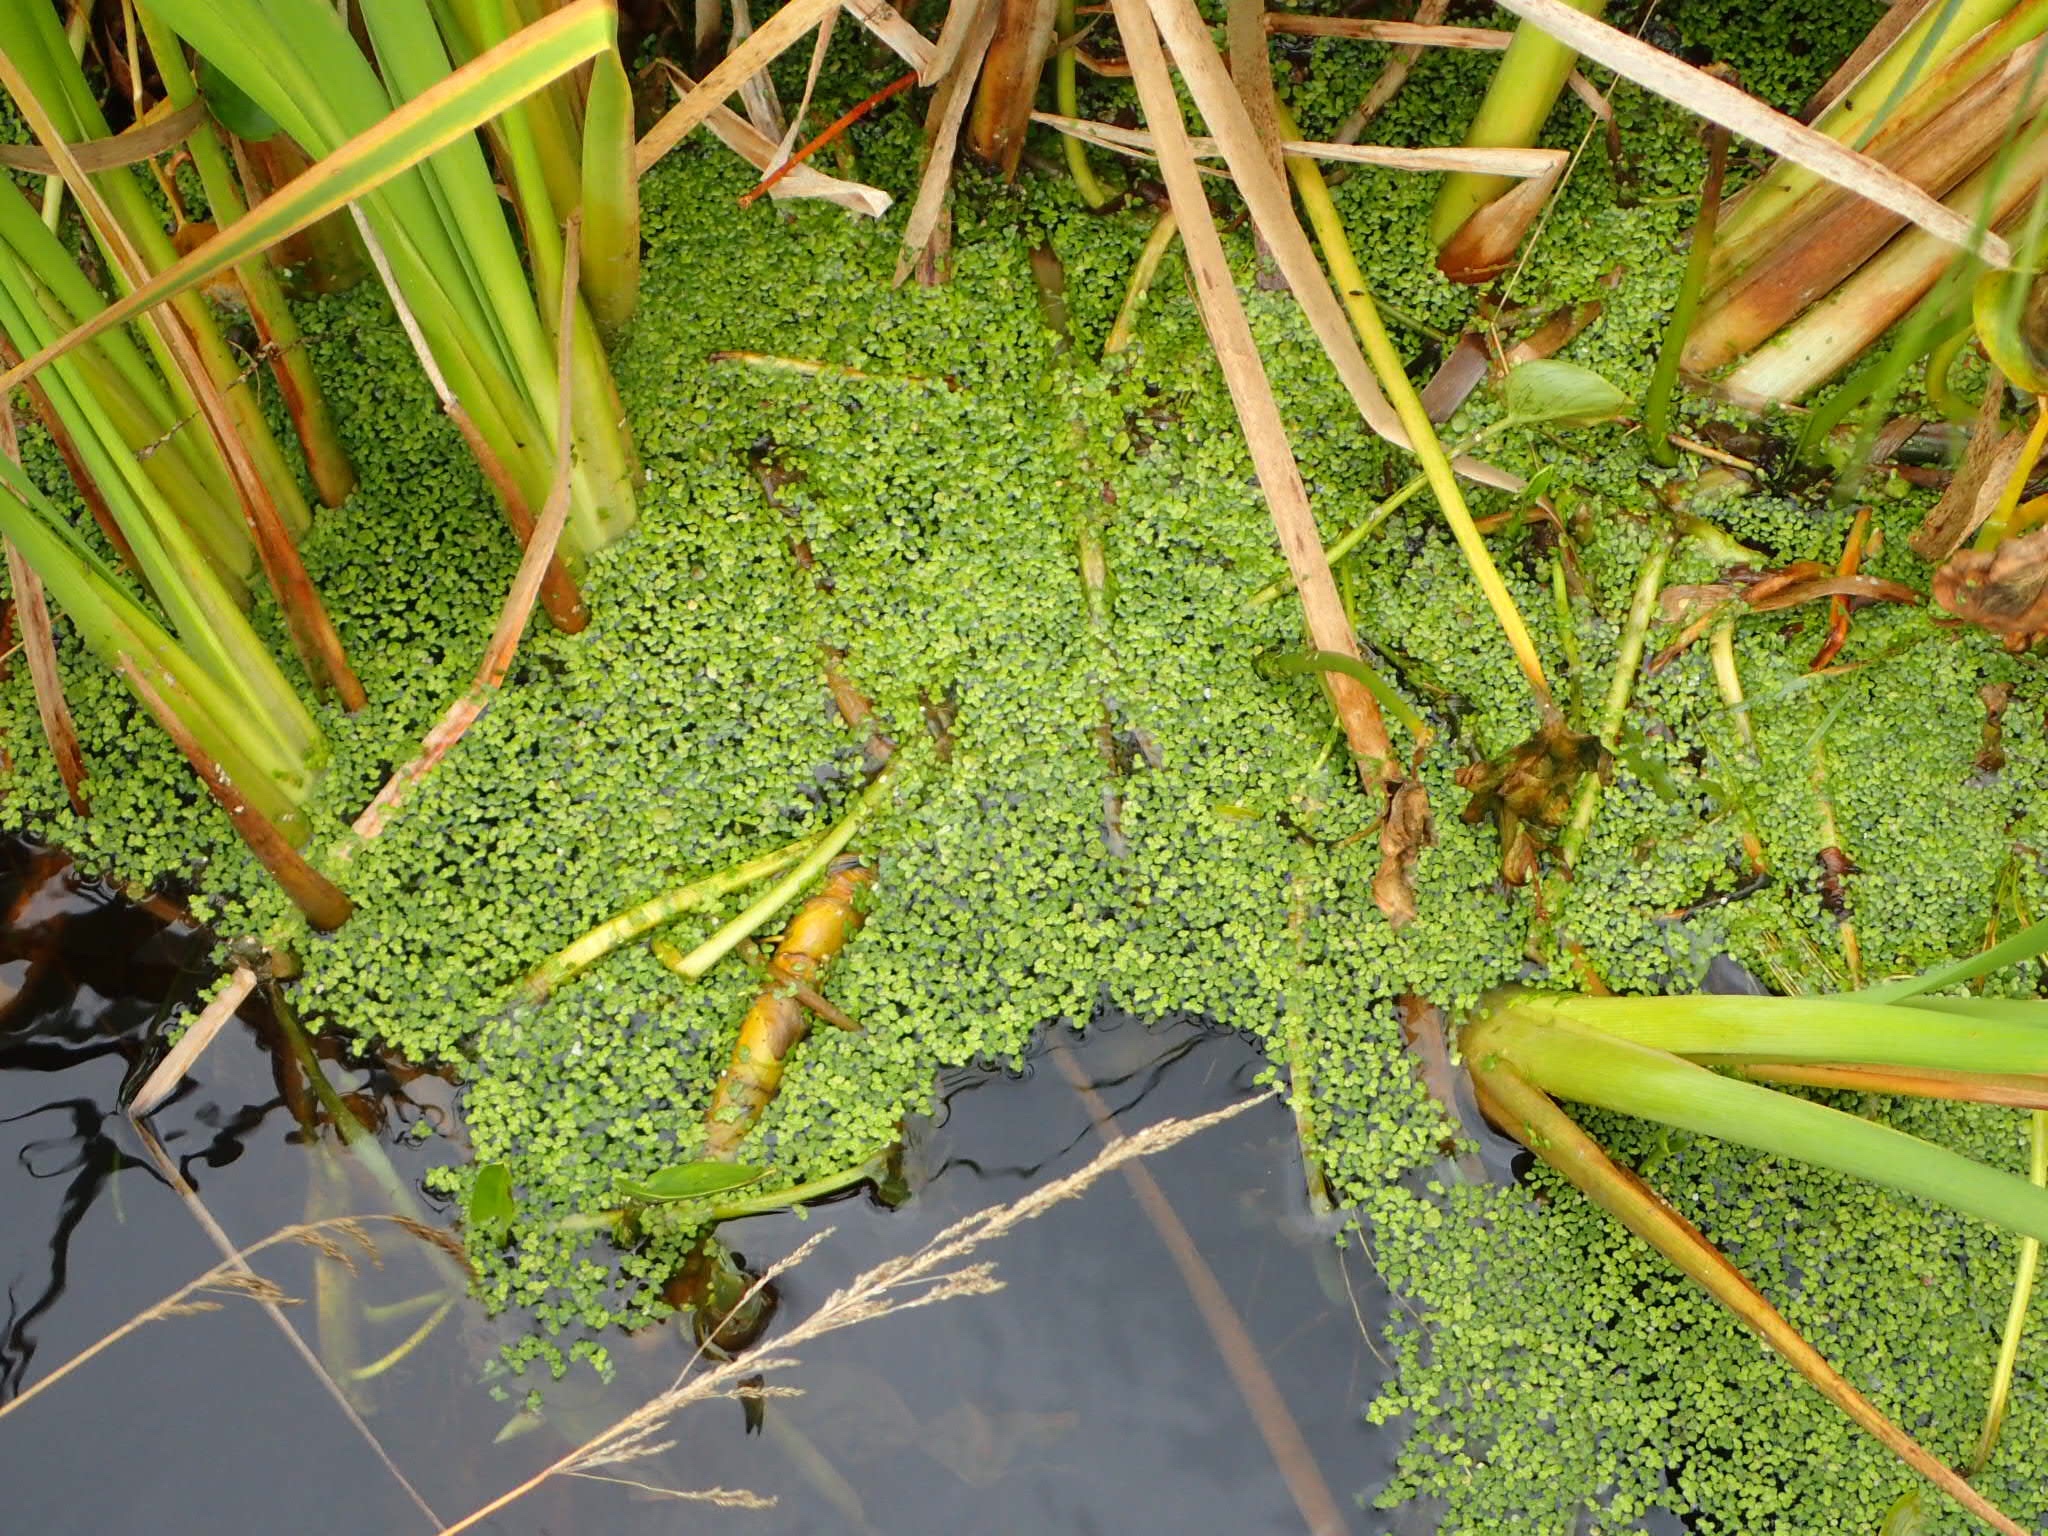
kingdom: Plantae
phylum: Tracheophyta
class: Liliopsida
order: Alismatales
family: Araceae
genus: Lemna
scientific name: Lemna minor
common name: Common duckweed
